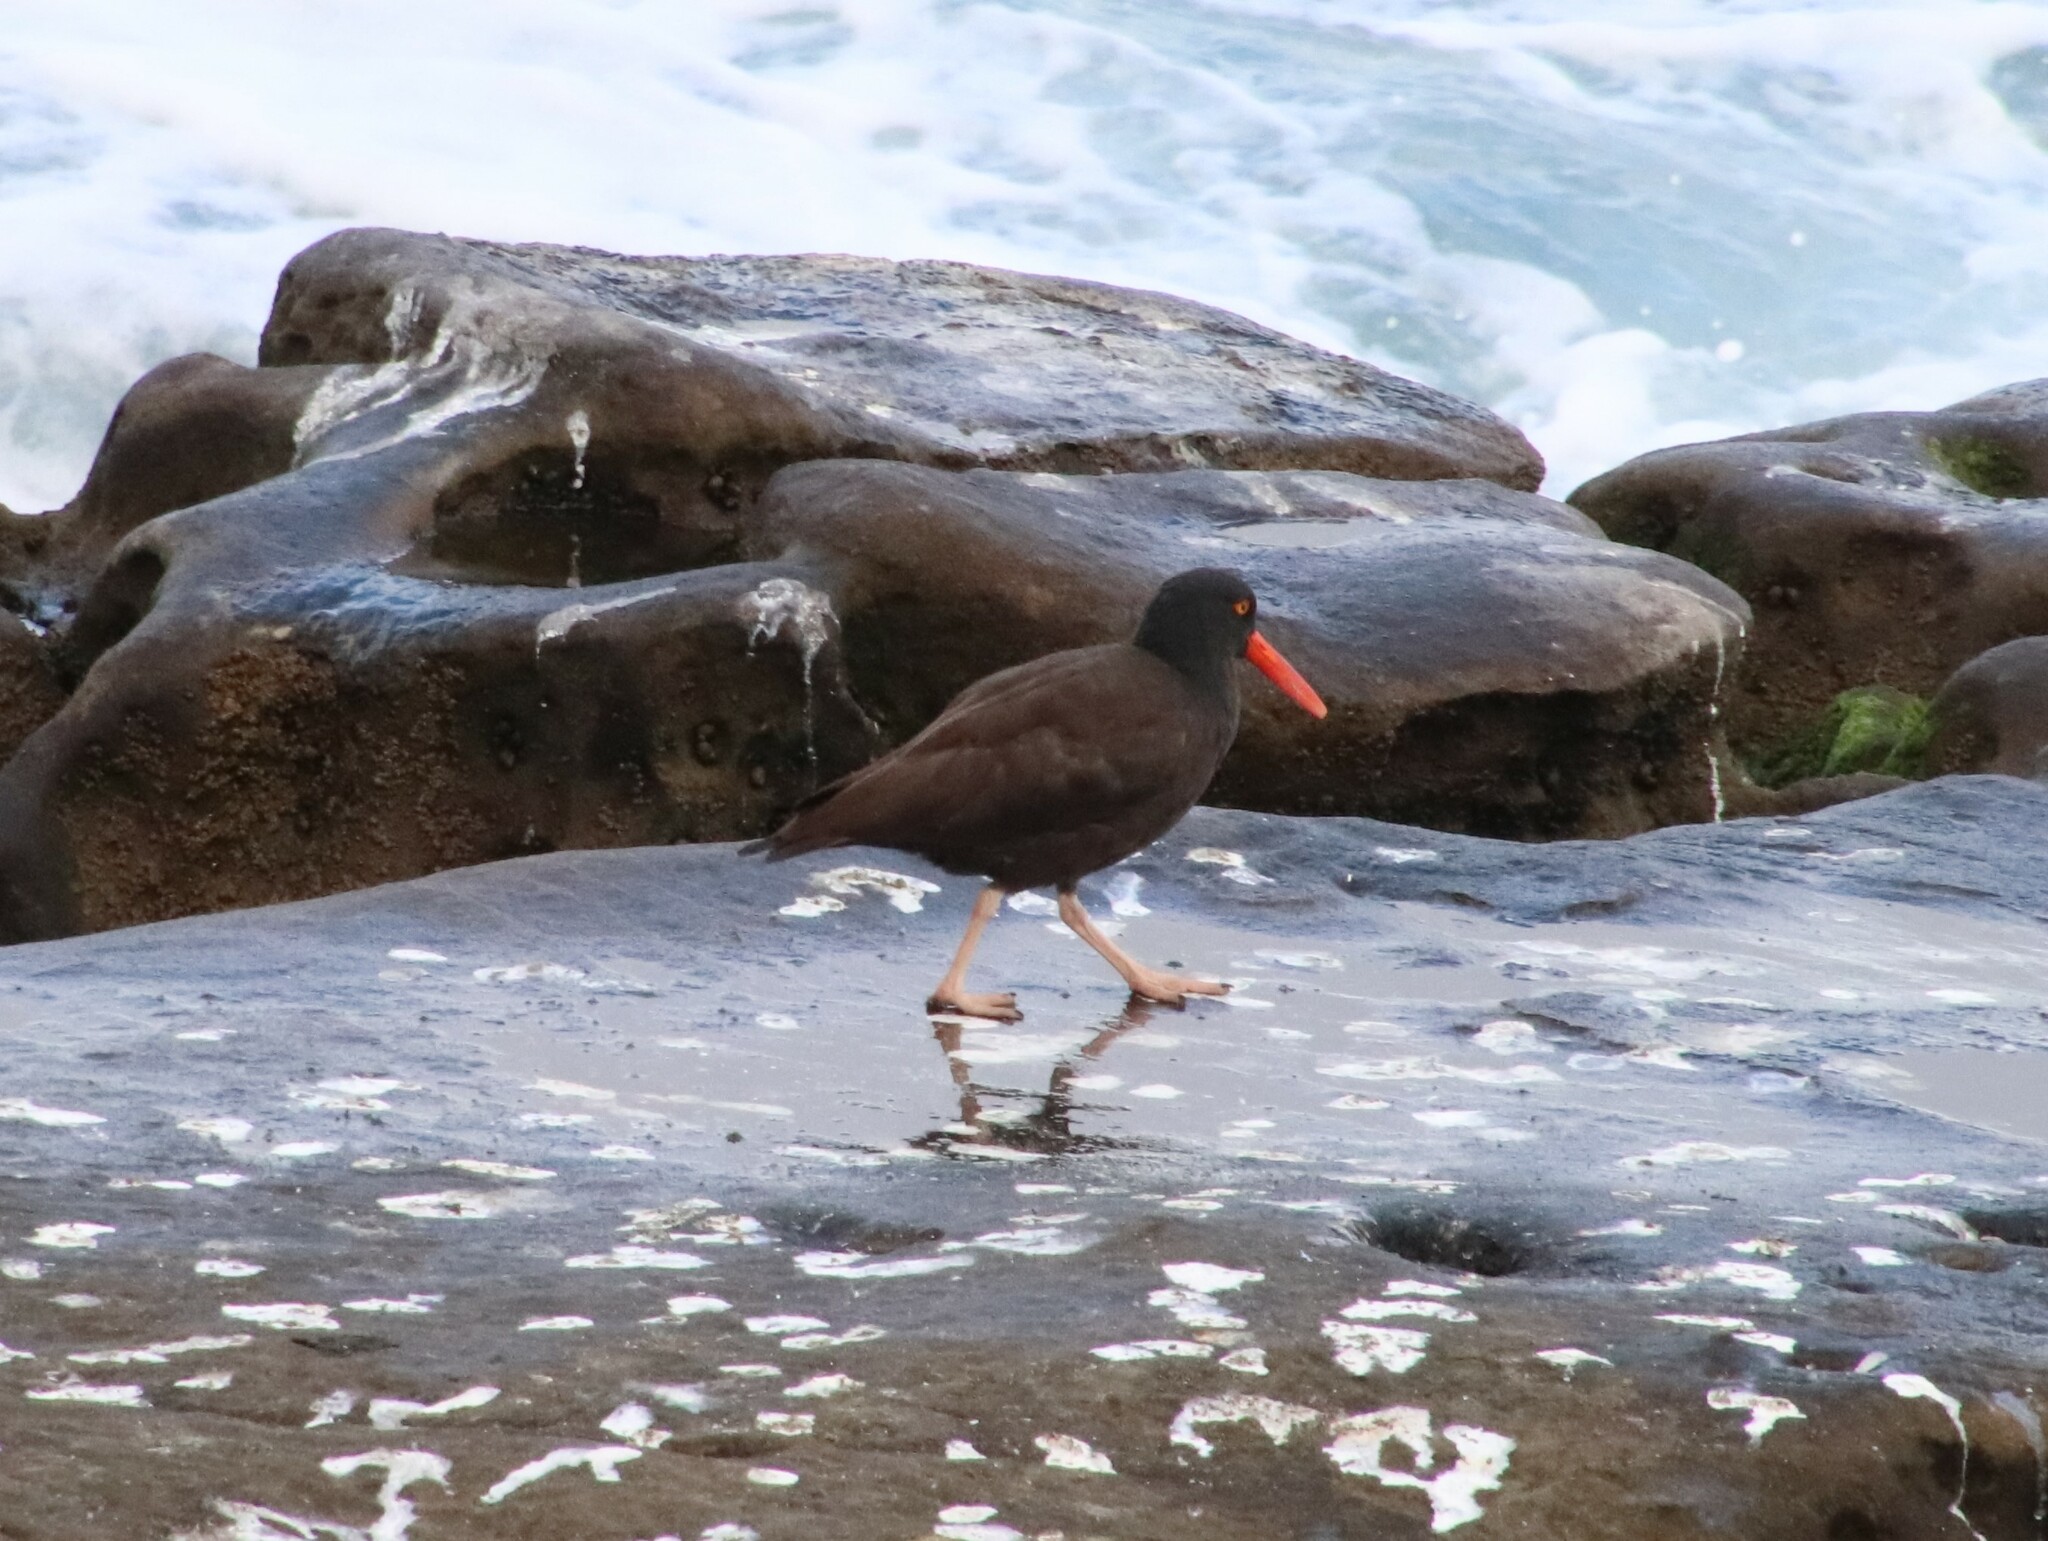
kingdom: Animalia
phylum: Chordata
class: Aves
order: Charadriiformes
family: Haematopodidae
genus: Haematopus
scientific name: Haematopus bachmani
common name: Black oystercatcher
